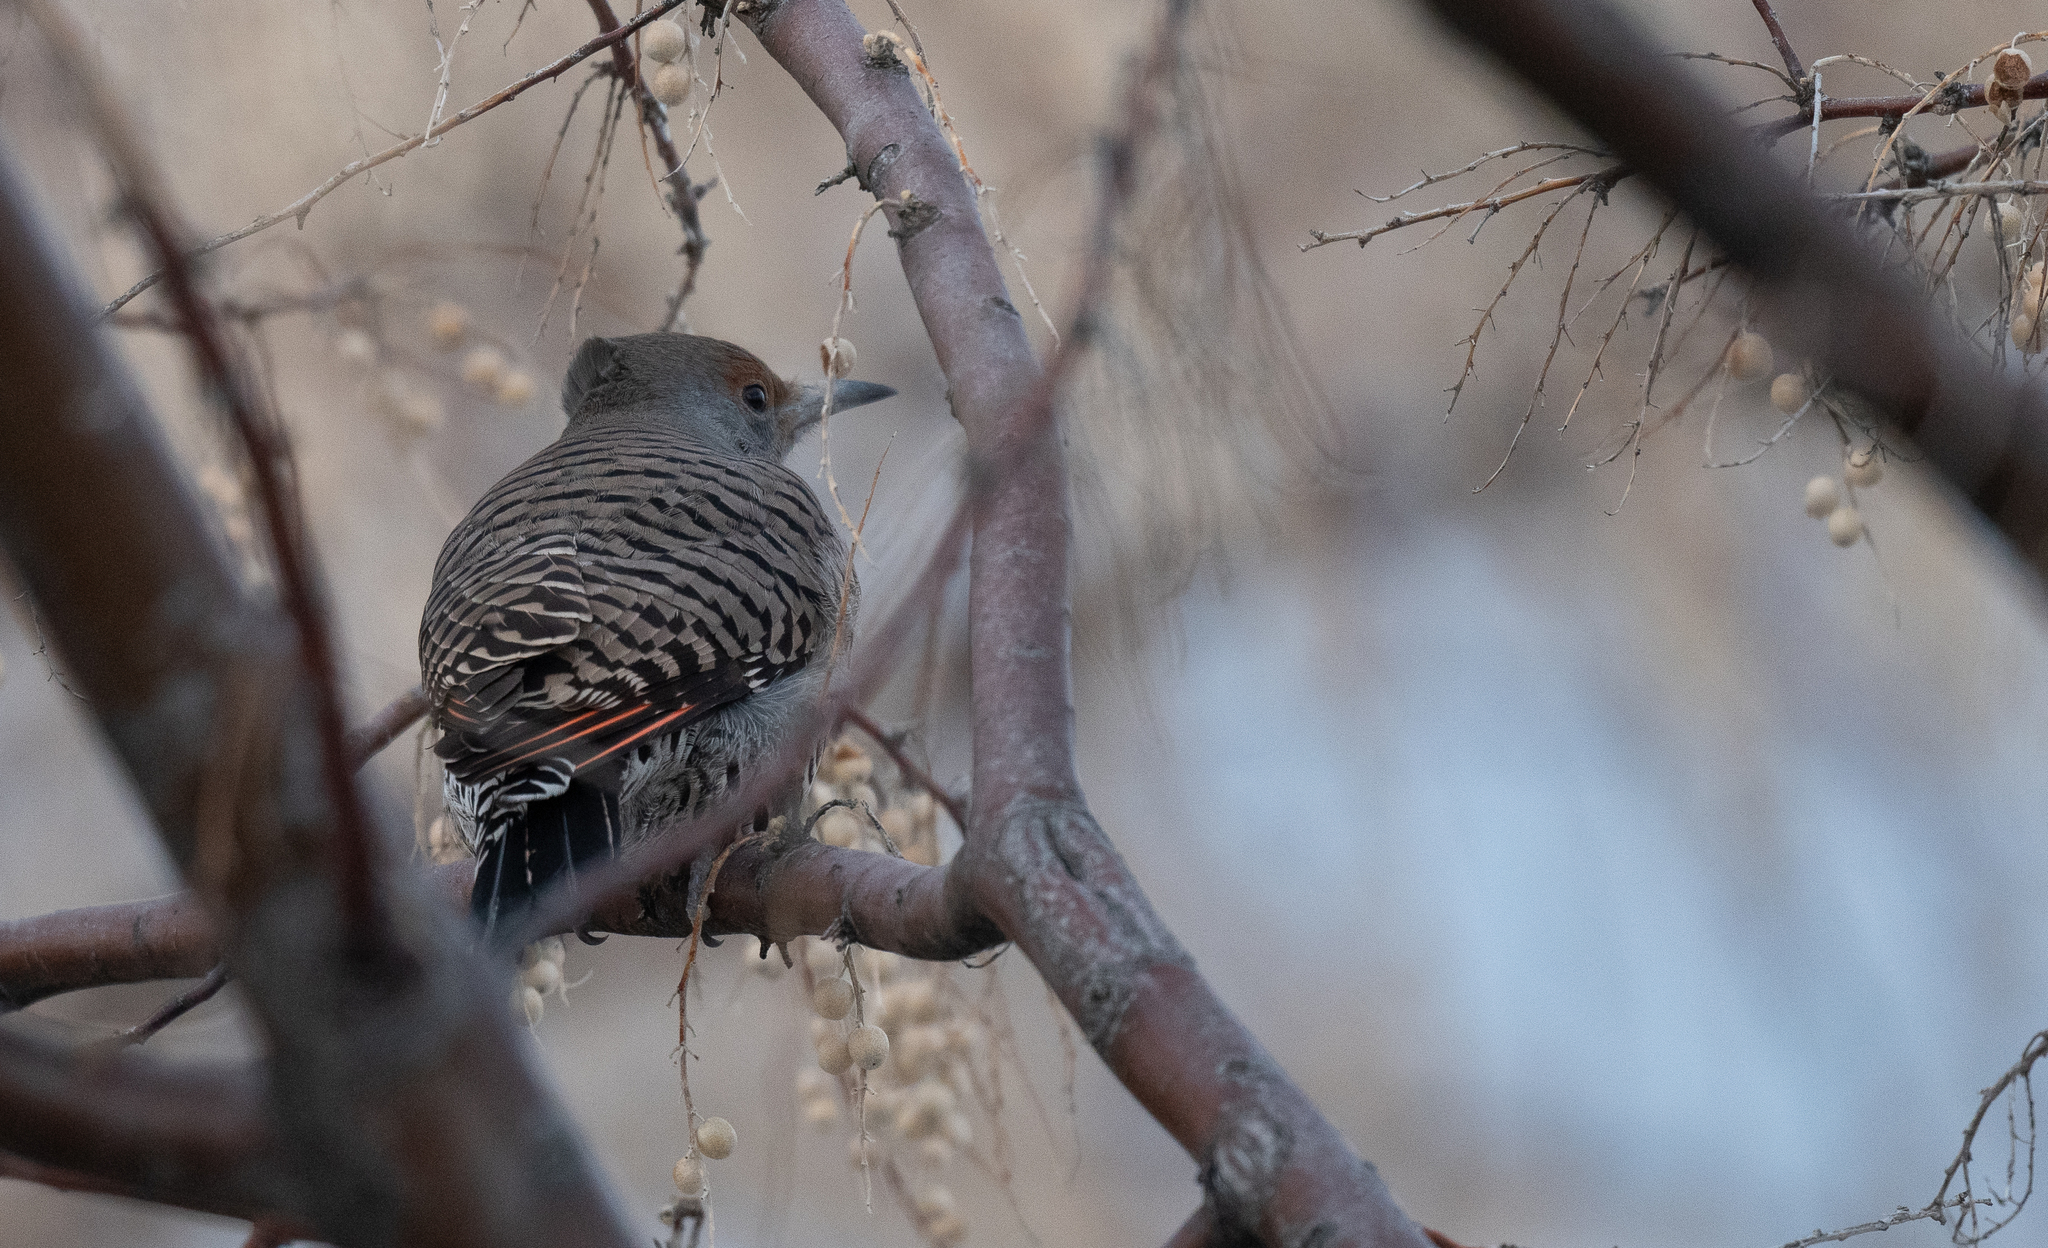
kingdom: Animalia
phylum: Chordata
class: Aves
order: Piciformes
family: Picidae
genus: Colaptes
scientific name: Colaptes auratus
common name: Northern flicker
